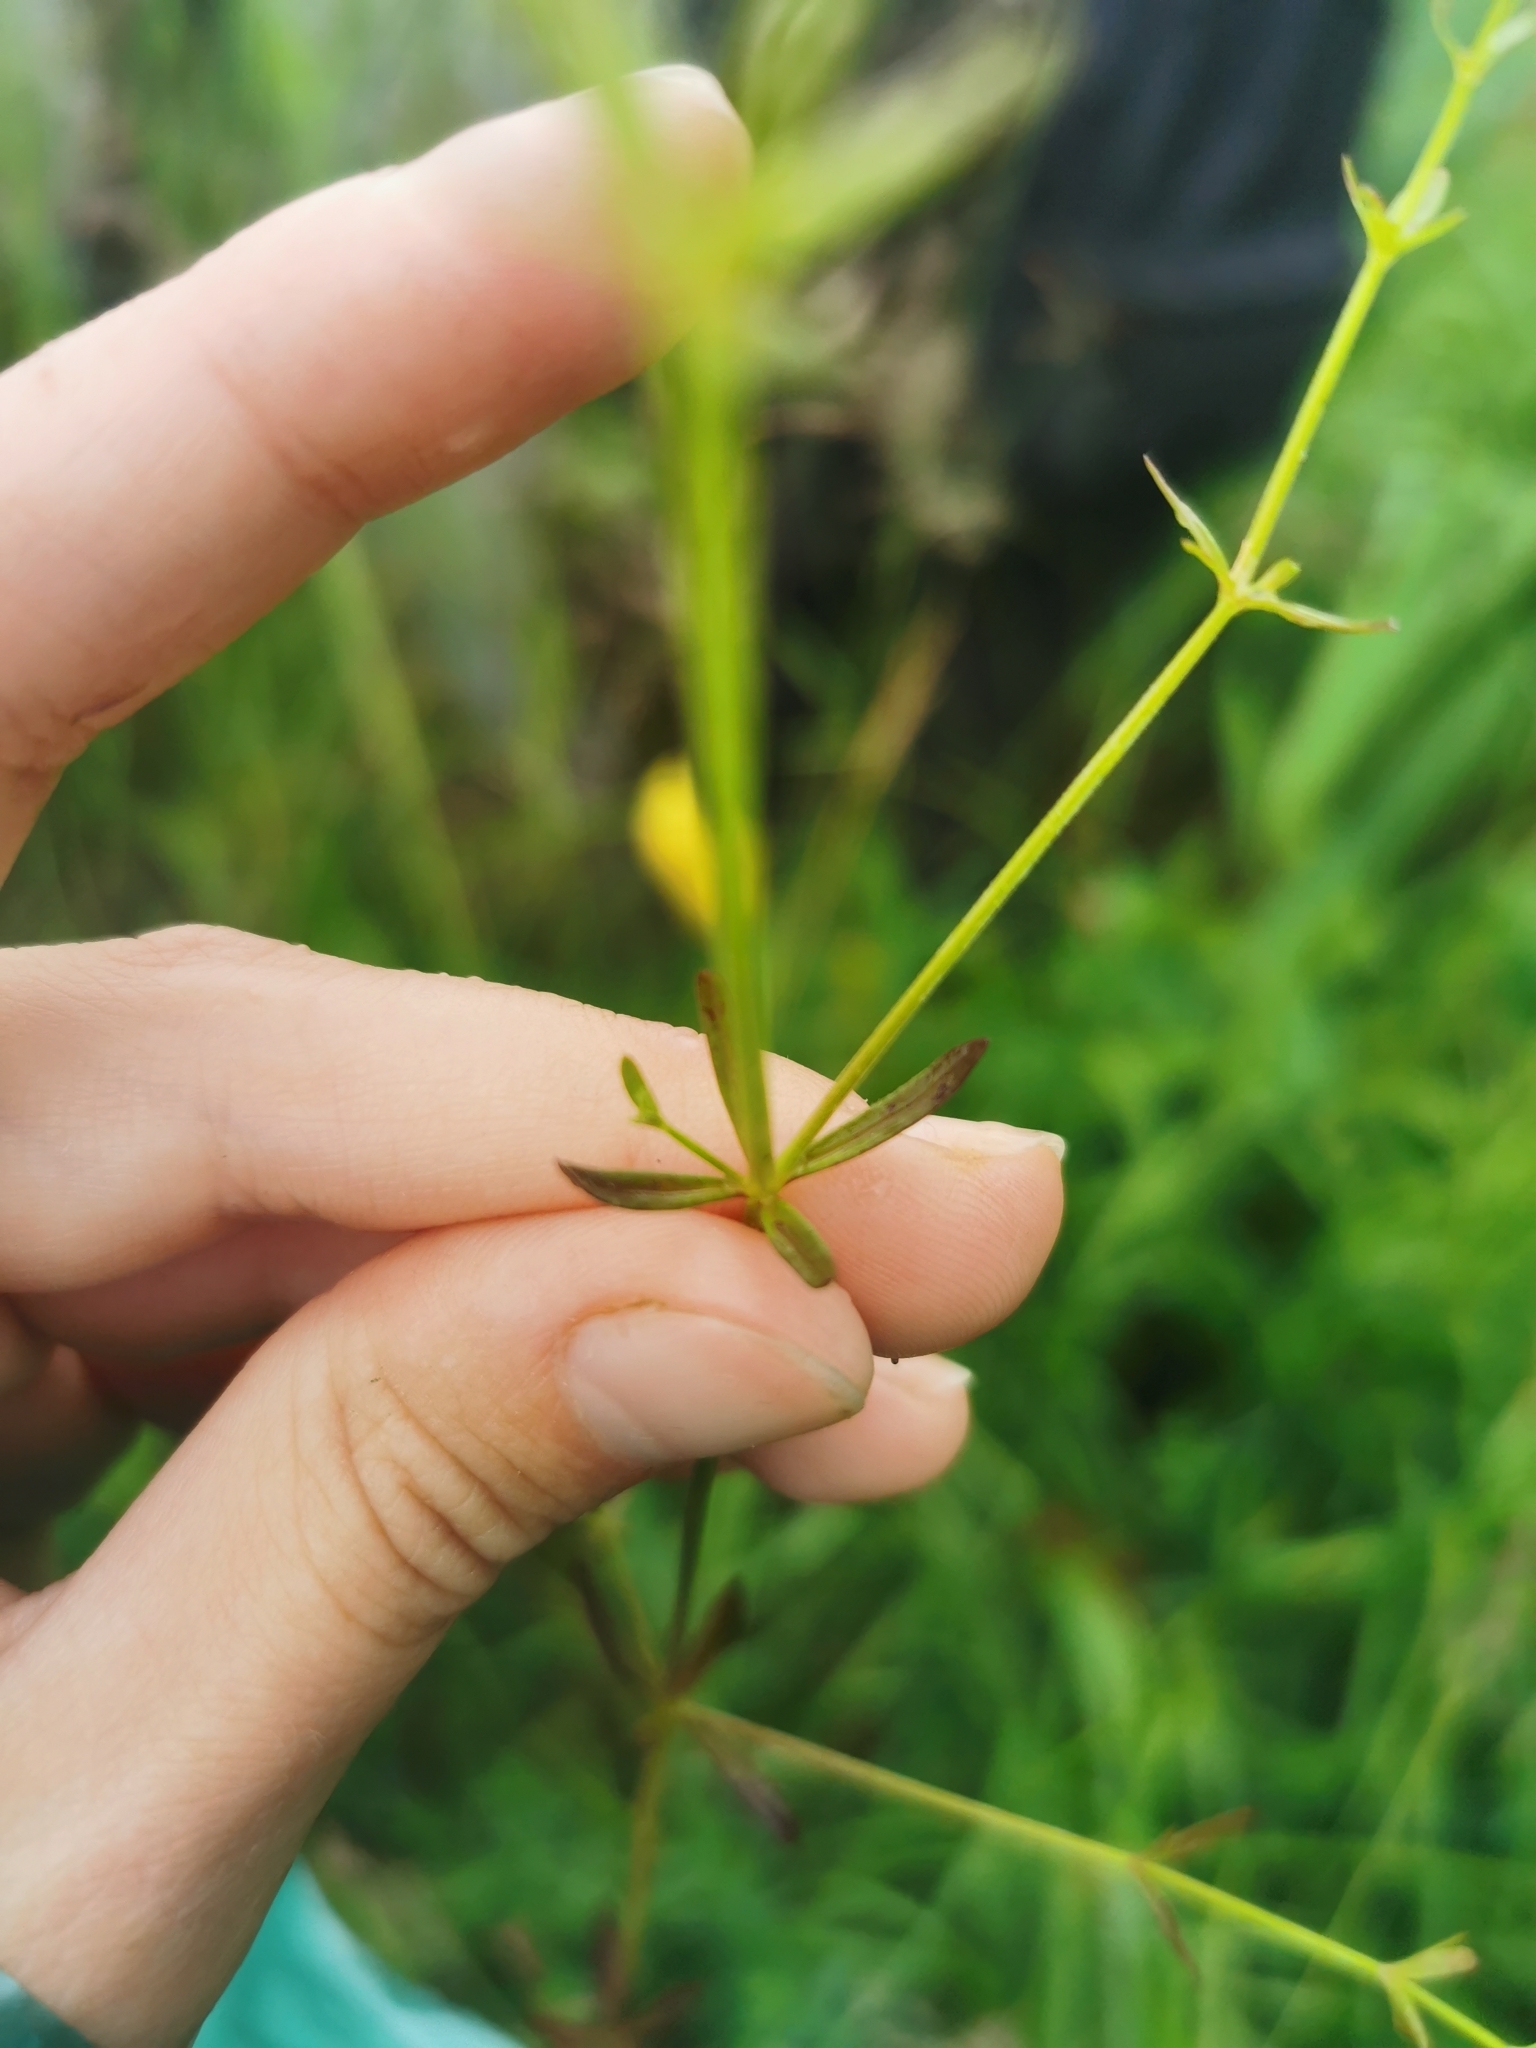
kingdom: Plantae
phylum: Tracheophyta
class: Magnoliopsida
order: Gentianales
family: Rubiaceae
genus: Galium
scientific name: Galium palustre
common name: Common marsh-bedstraw
